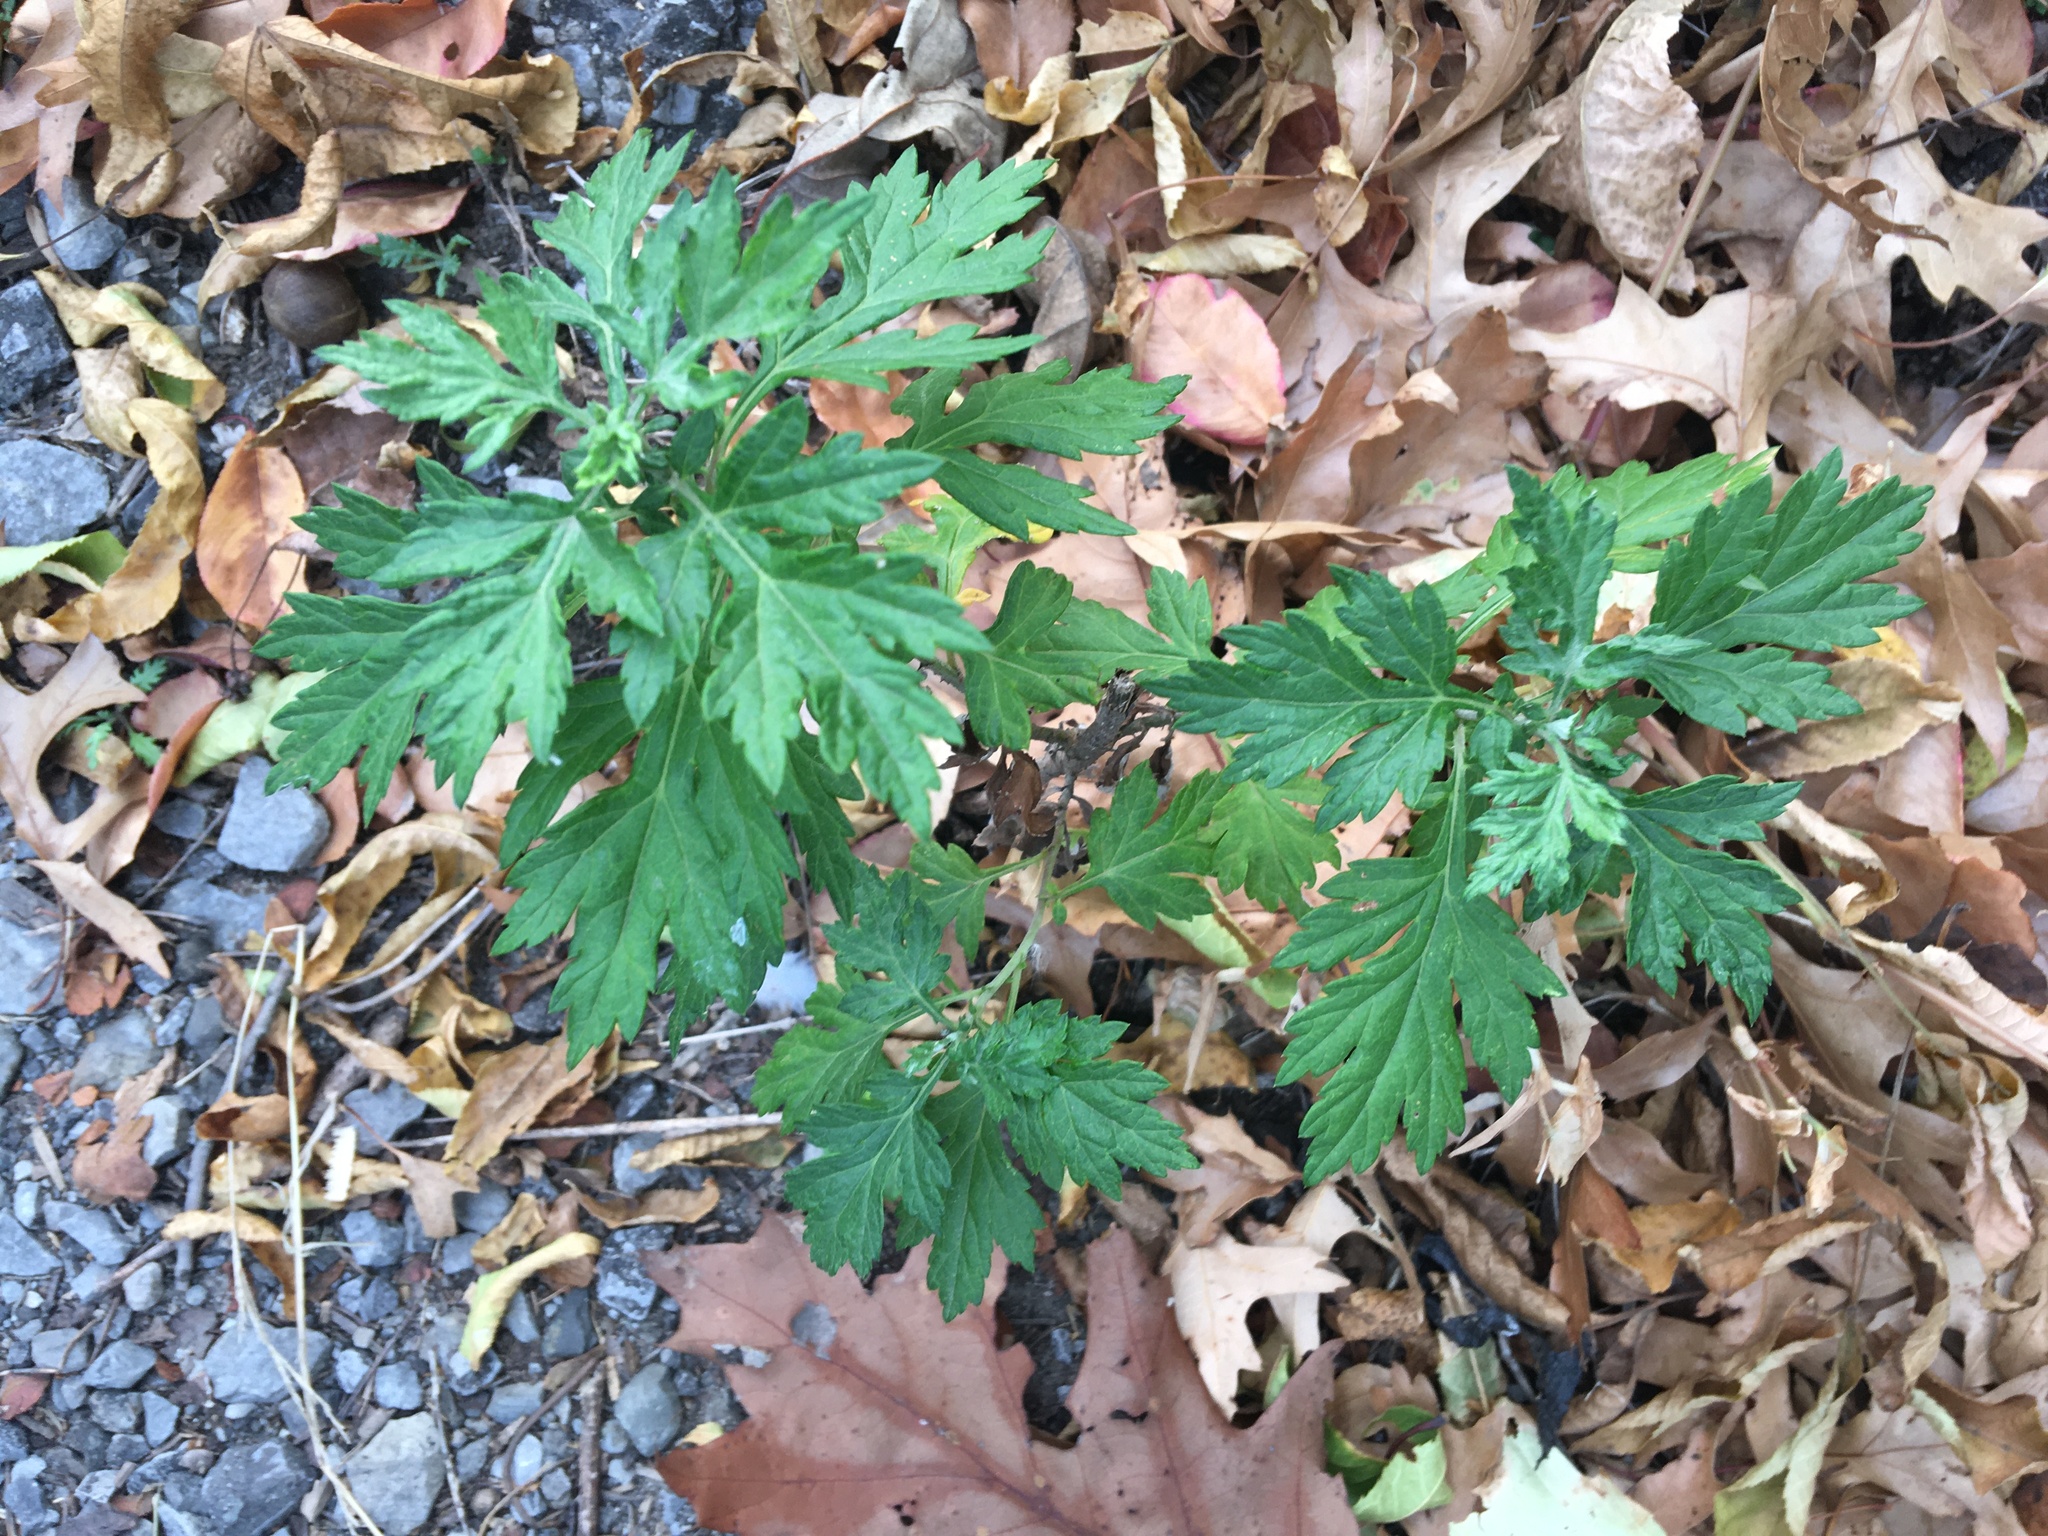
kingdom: Plantae
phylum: Tracheophyta
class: Magnoliopsida
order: Asterales
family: Asteraceae
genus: Artemisia
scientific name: Artemisia vulgaris
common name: Mugwort
